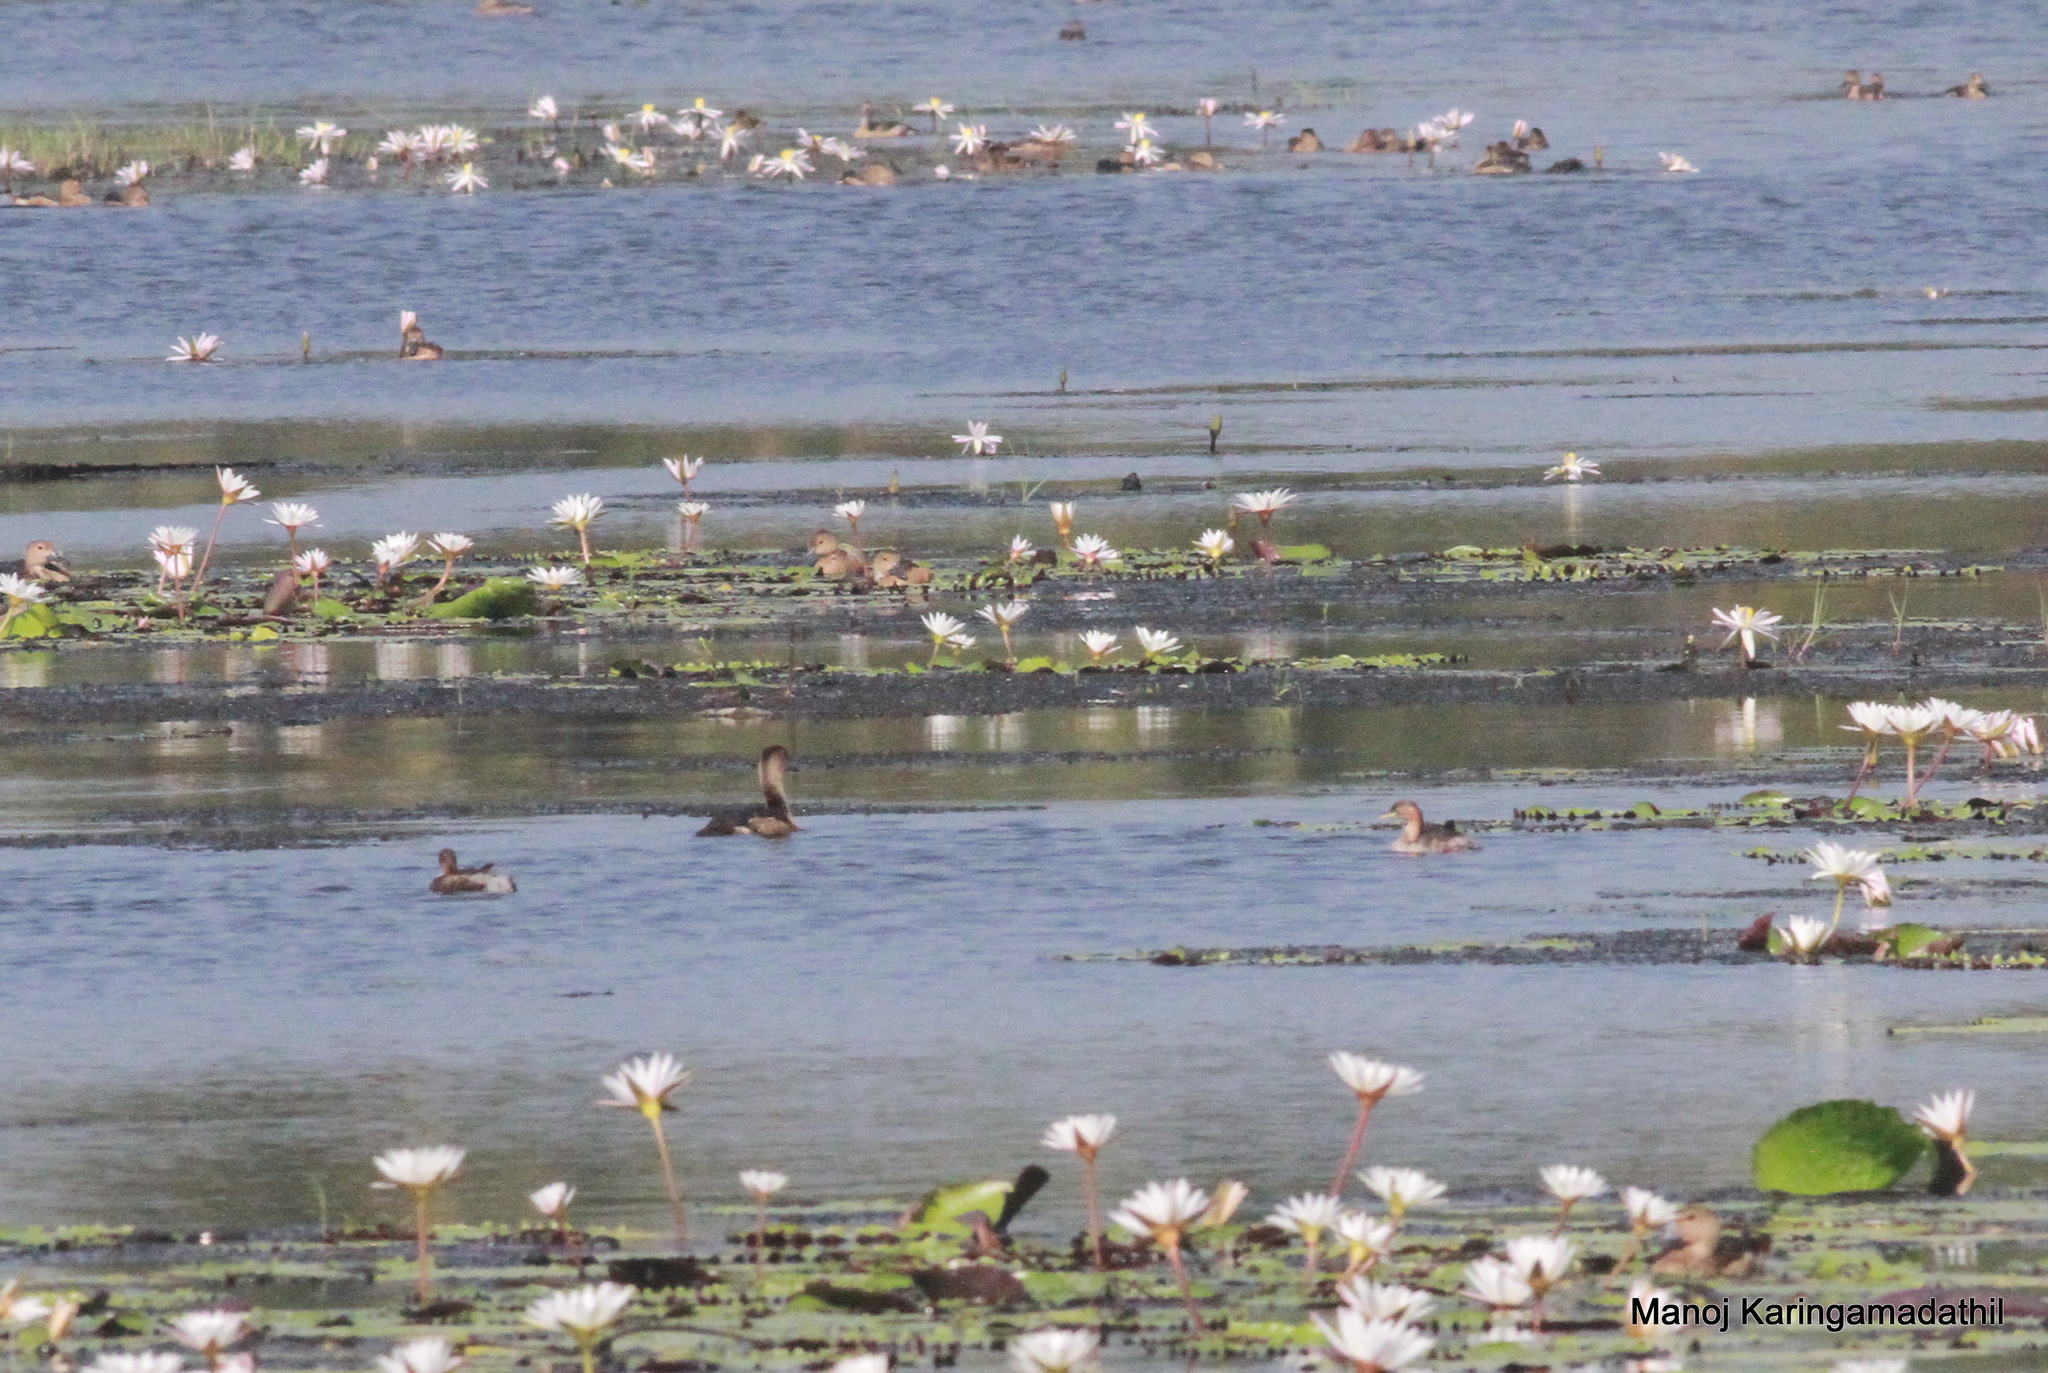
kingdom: Animalia
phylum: Chordata
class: Aves
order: Anseriformes
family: Anatidae
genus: Dendrocygna
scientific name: Dendrocygna javanica
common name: Lesser whistling-duck
